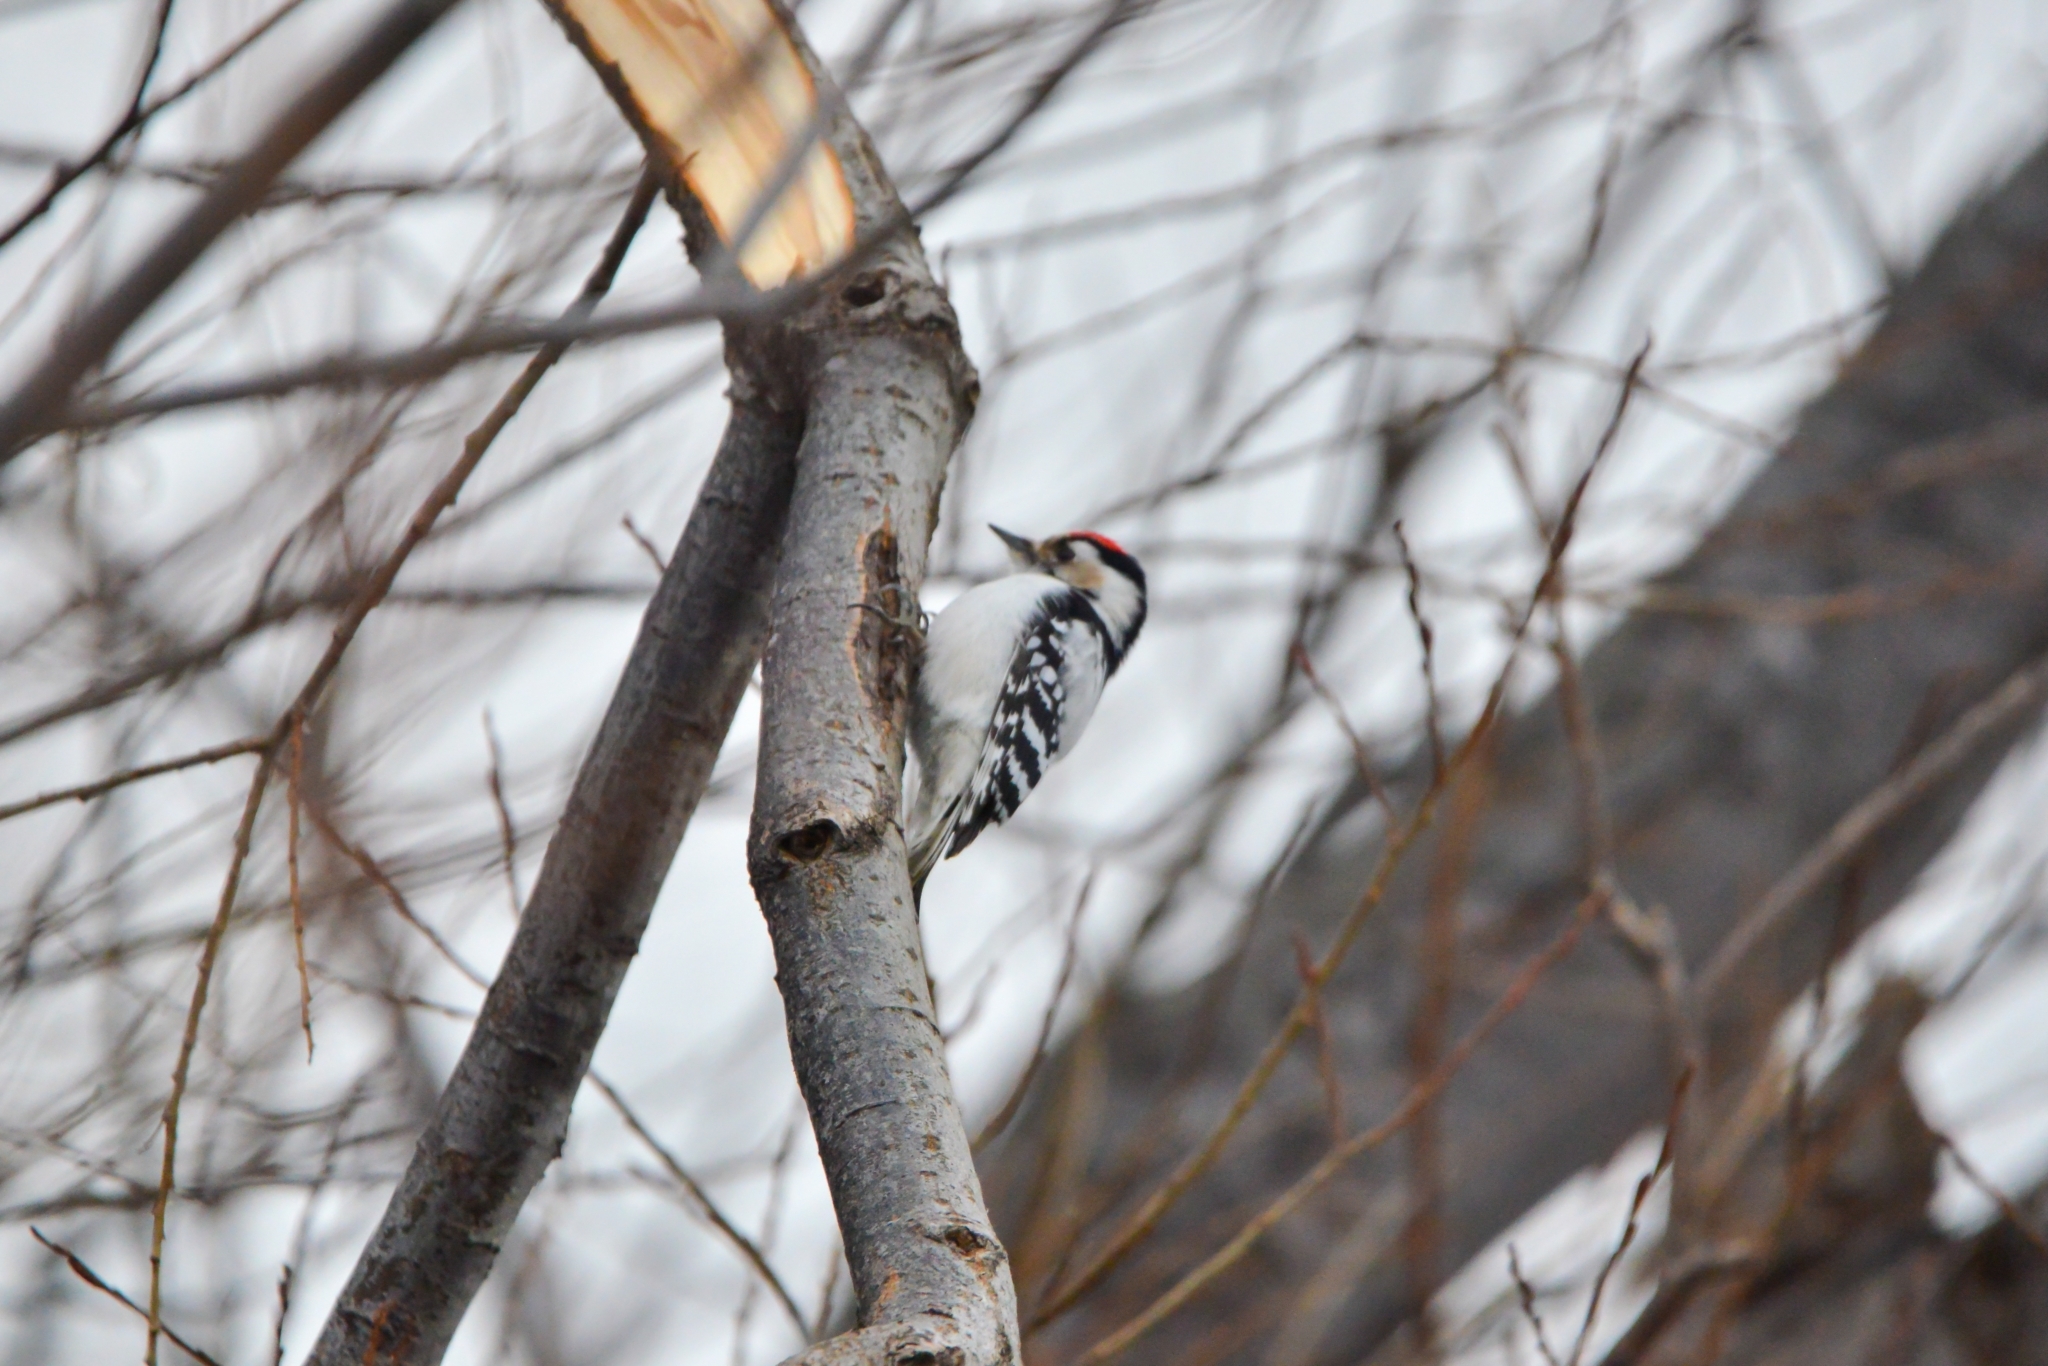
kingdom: Animalia
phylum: Chordata
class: Aves
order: Piciformes
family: Picidae
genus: Dryobates
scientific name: Dryobates minor
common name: Lesser spotted woodpecker
